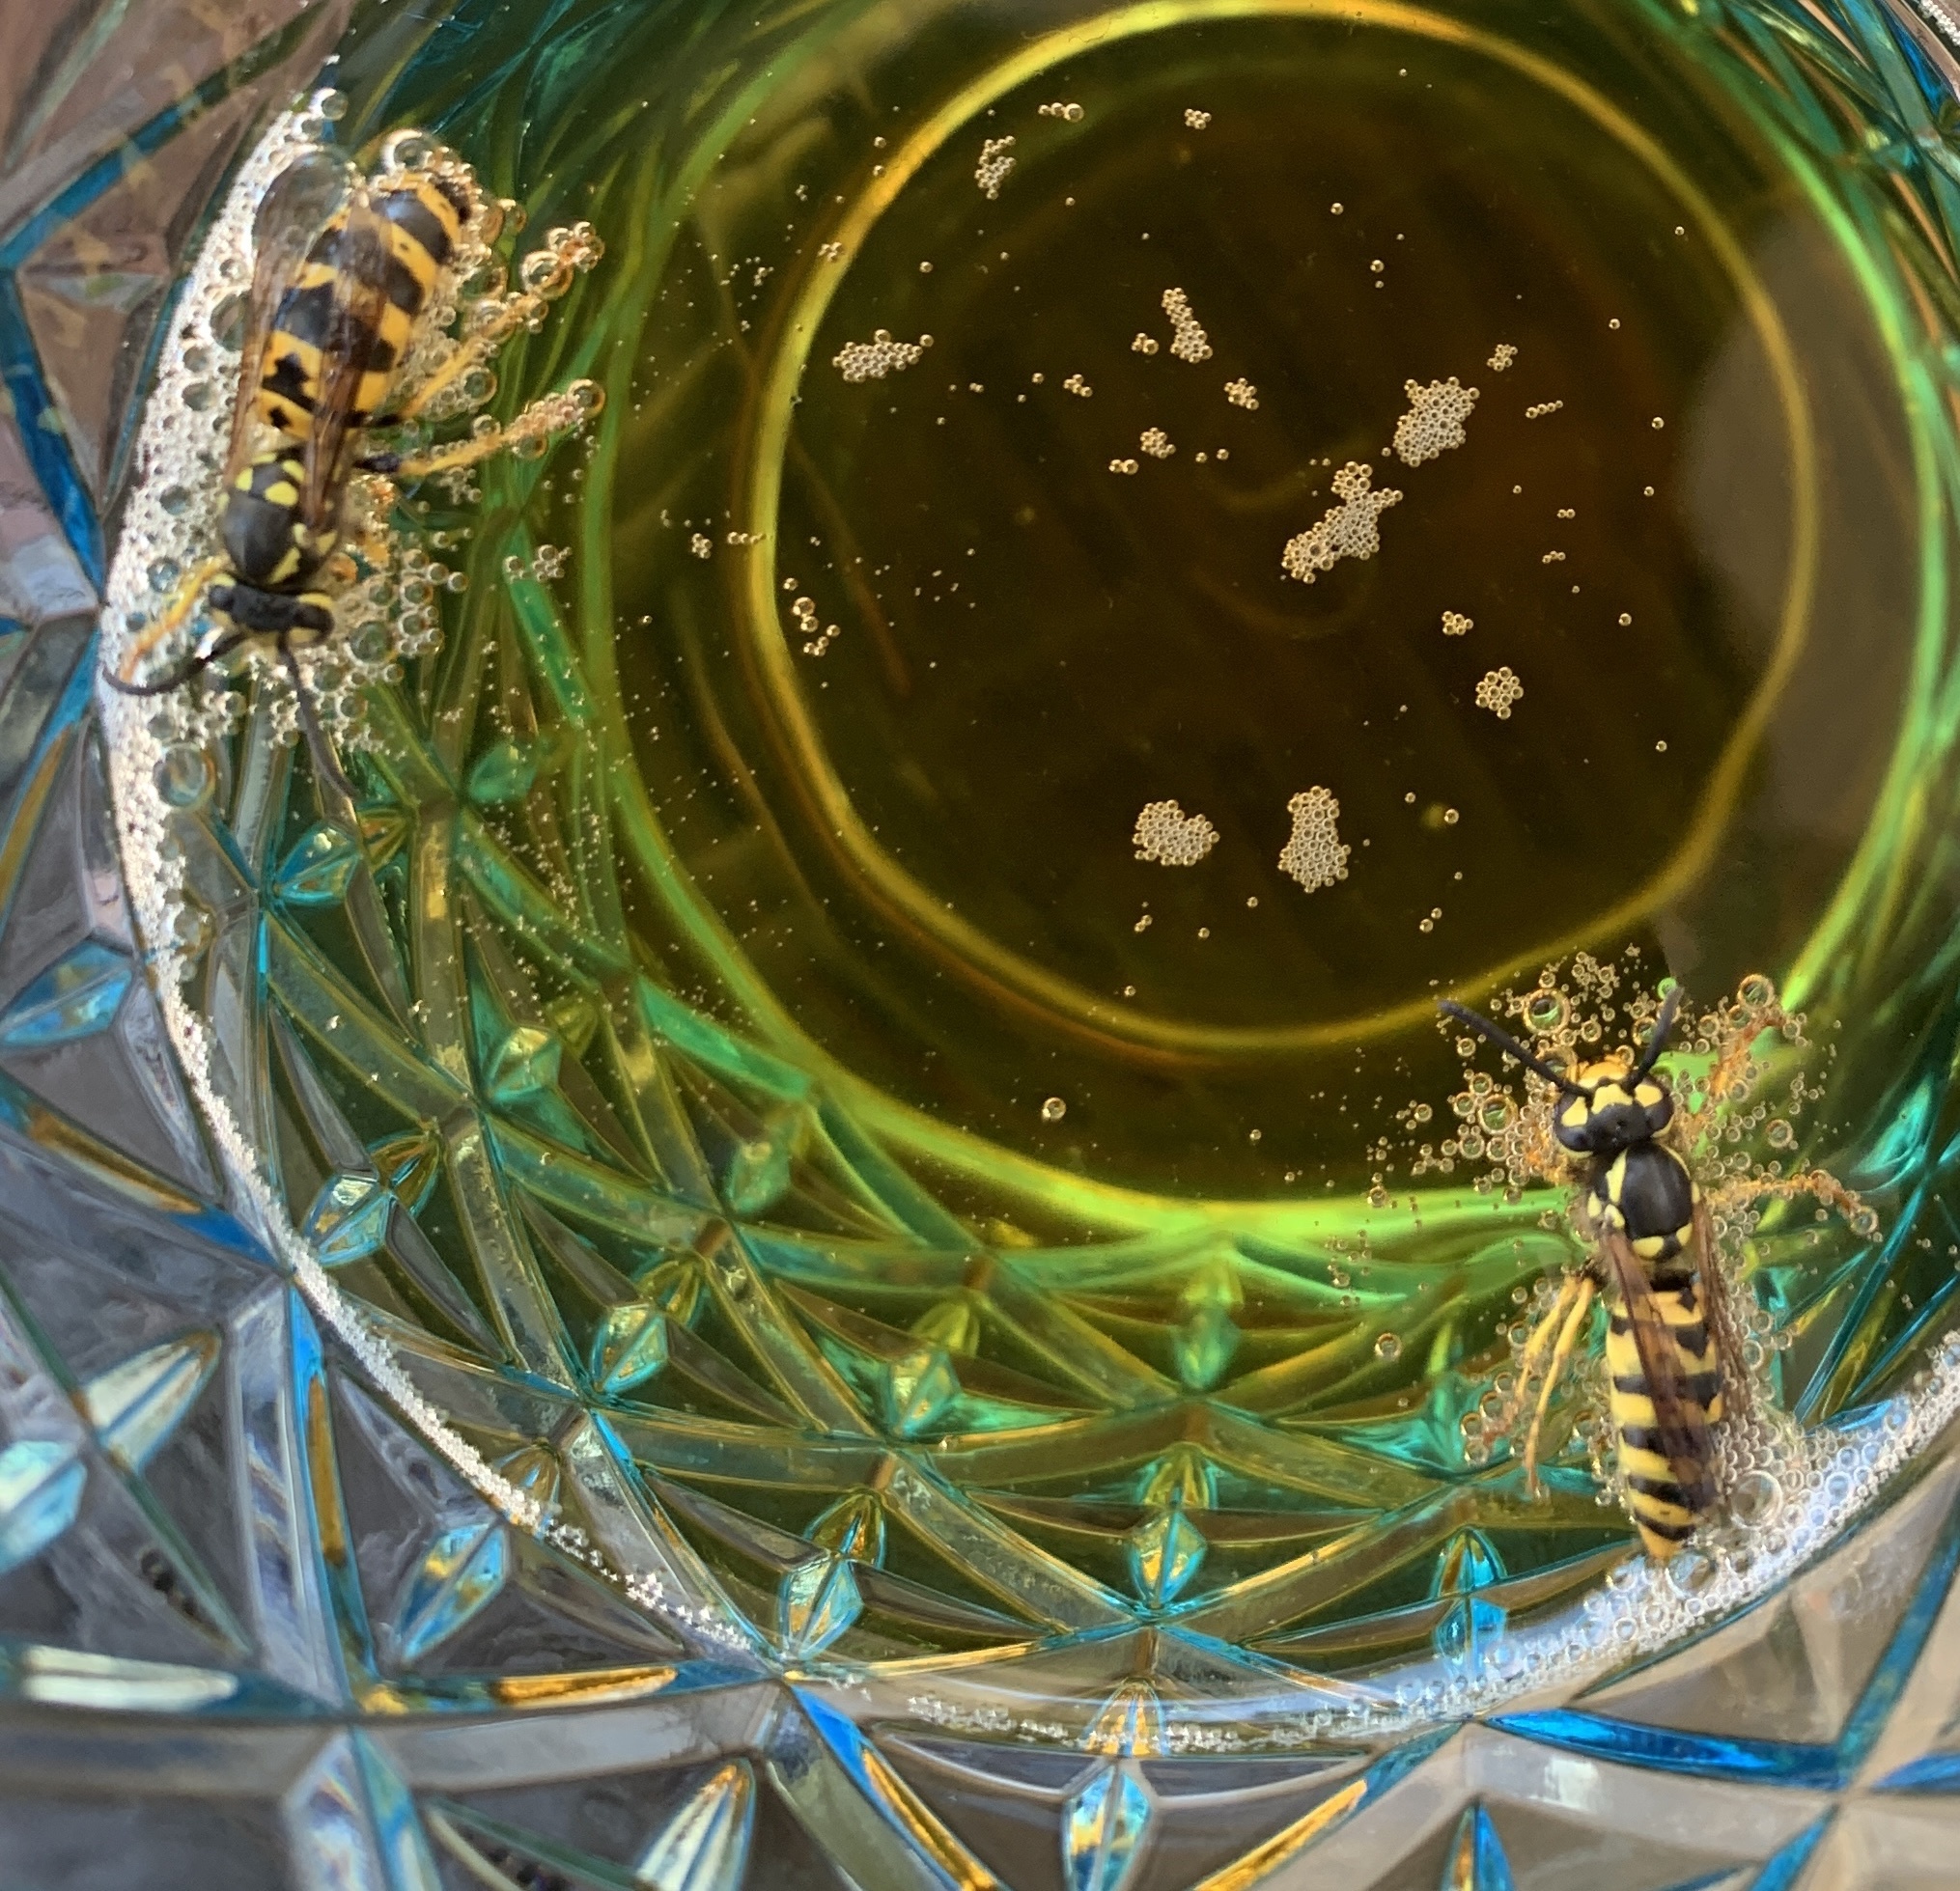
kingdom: Animalia
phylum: Arthropoda
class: Insecta
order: Hymenoptera
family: Vespidae
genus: Vespula
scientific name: Vespula germanica
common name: German wasp
